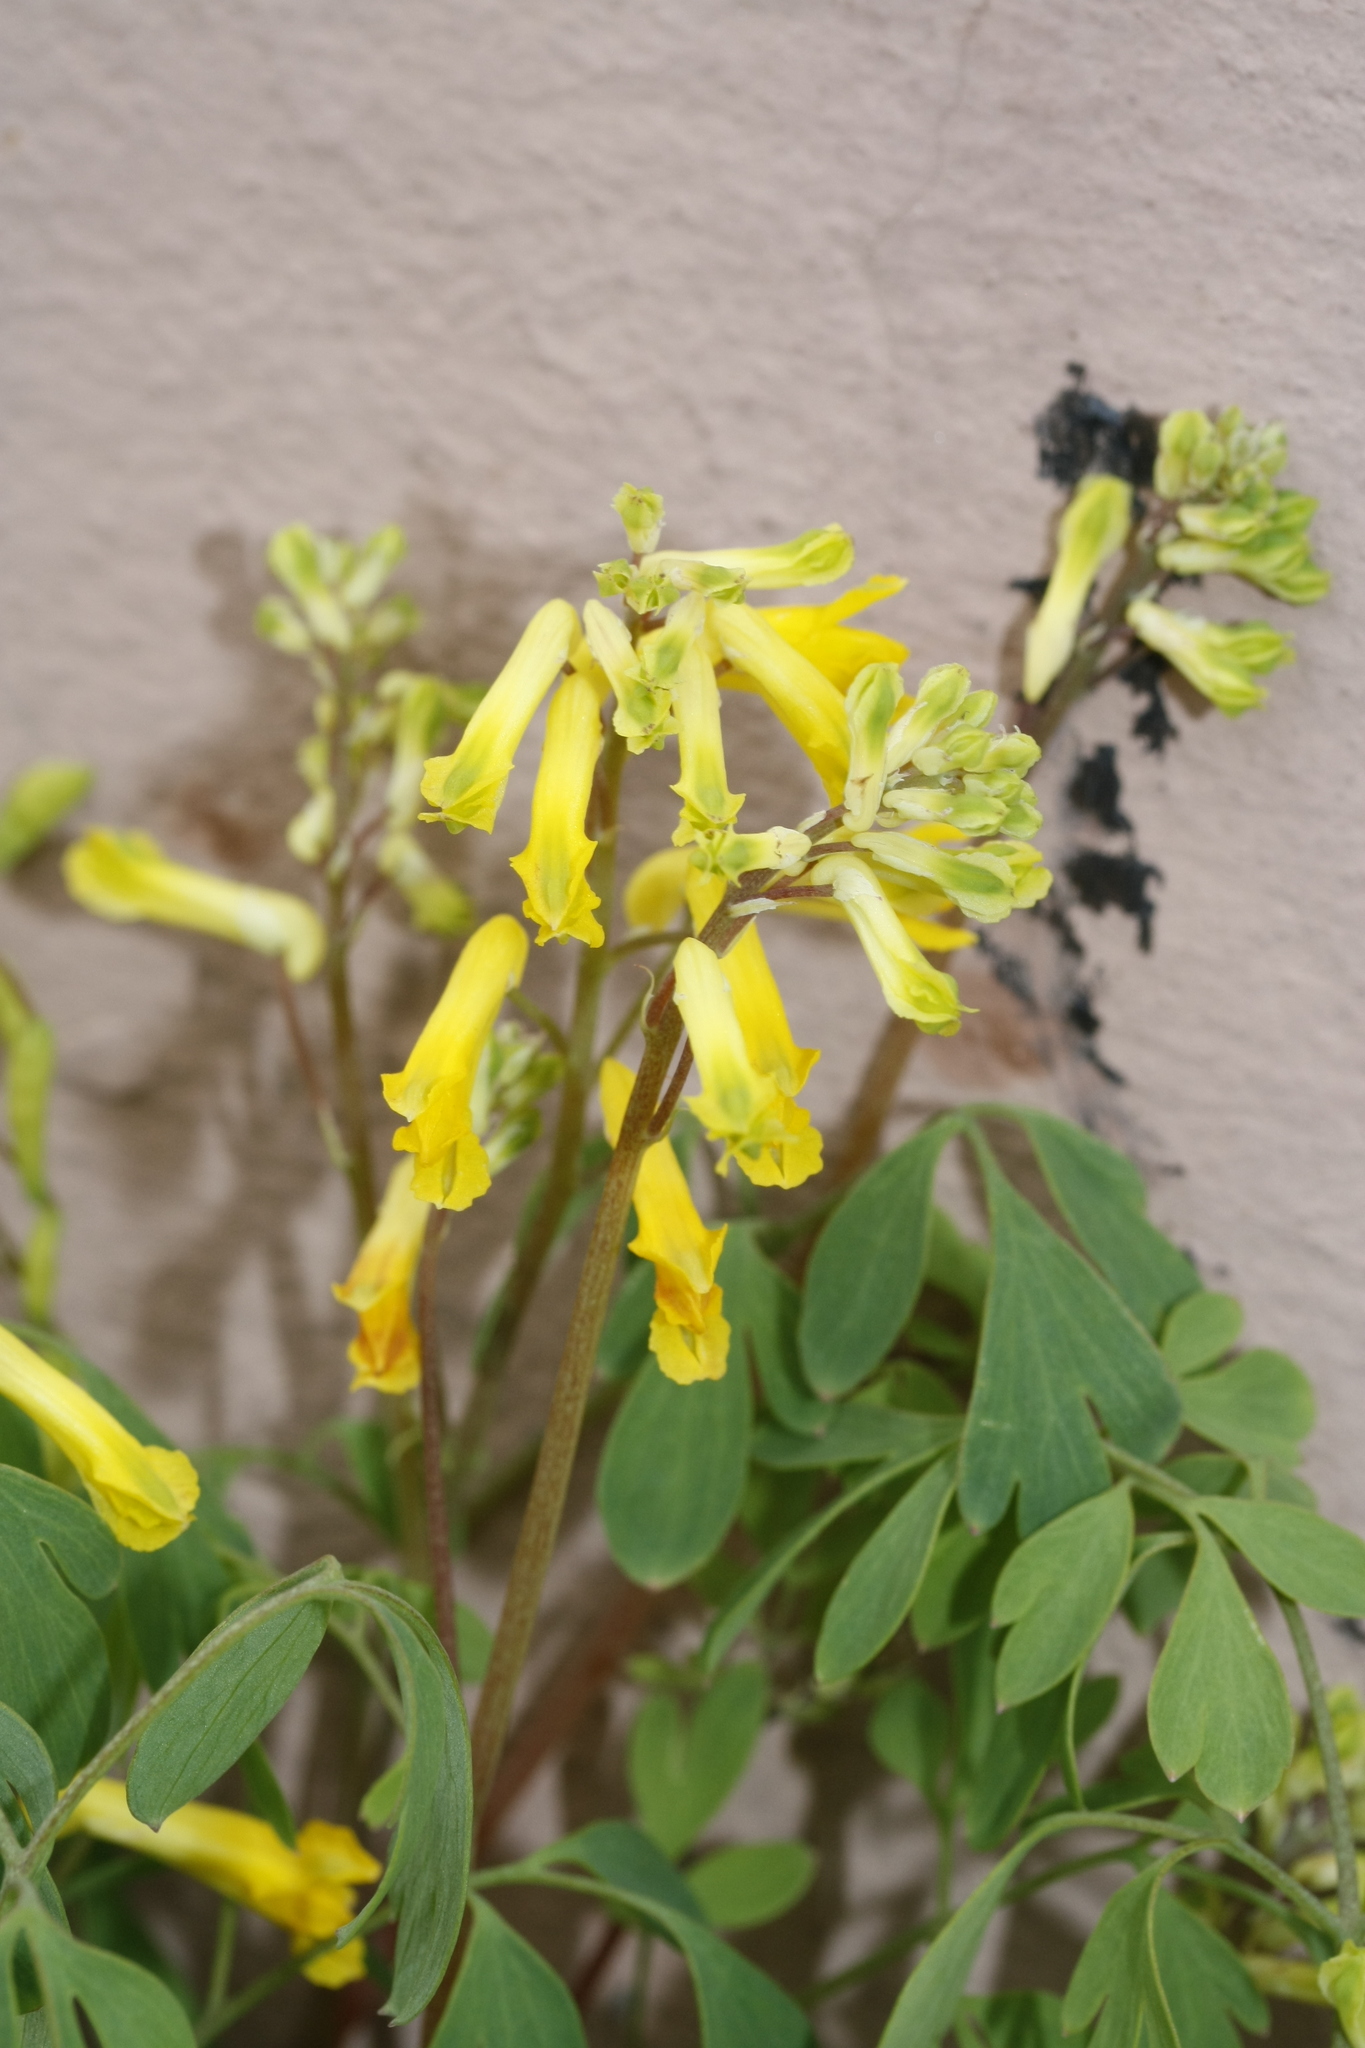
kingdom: Plantae
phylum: Tracheophyta
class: Magnoliopsida
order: Ranunculales
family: Papaveraceae
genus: Pseudofumaria
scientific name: Pseudofumaria lutea
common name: Yellow corydalis
